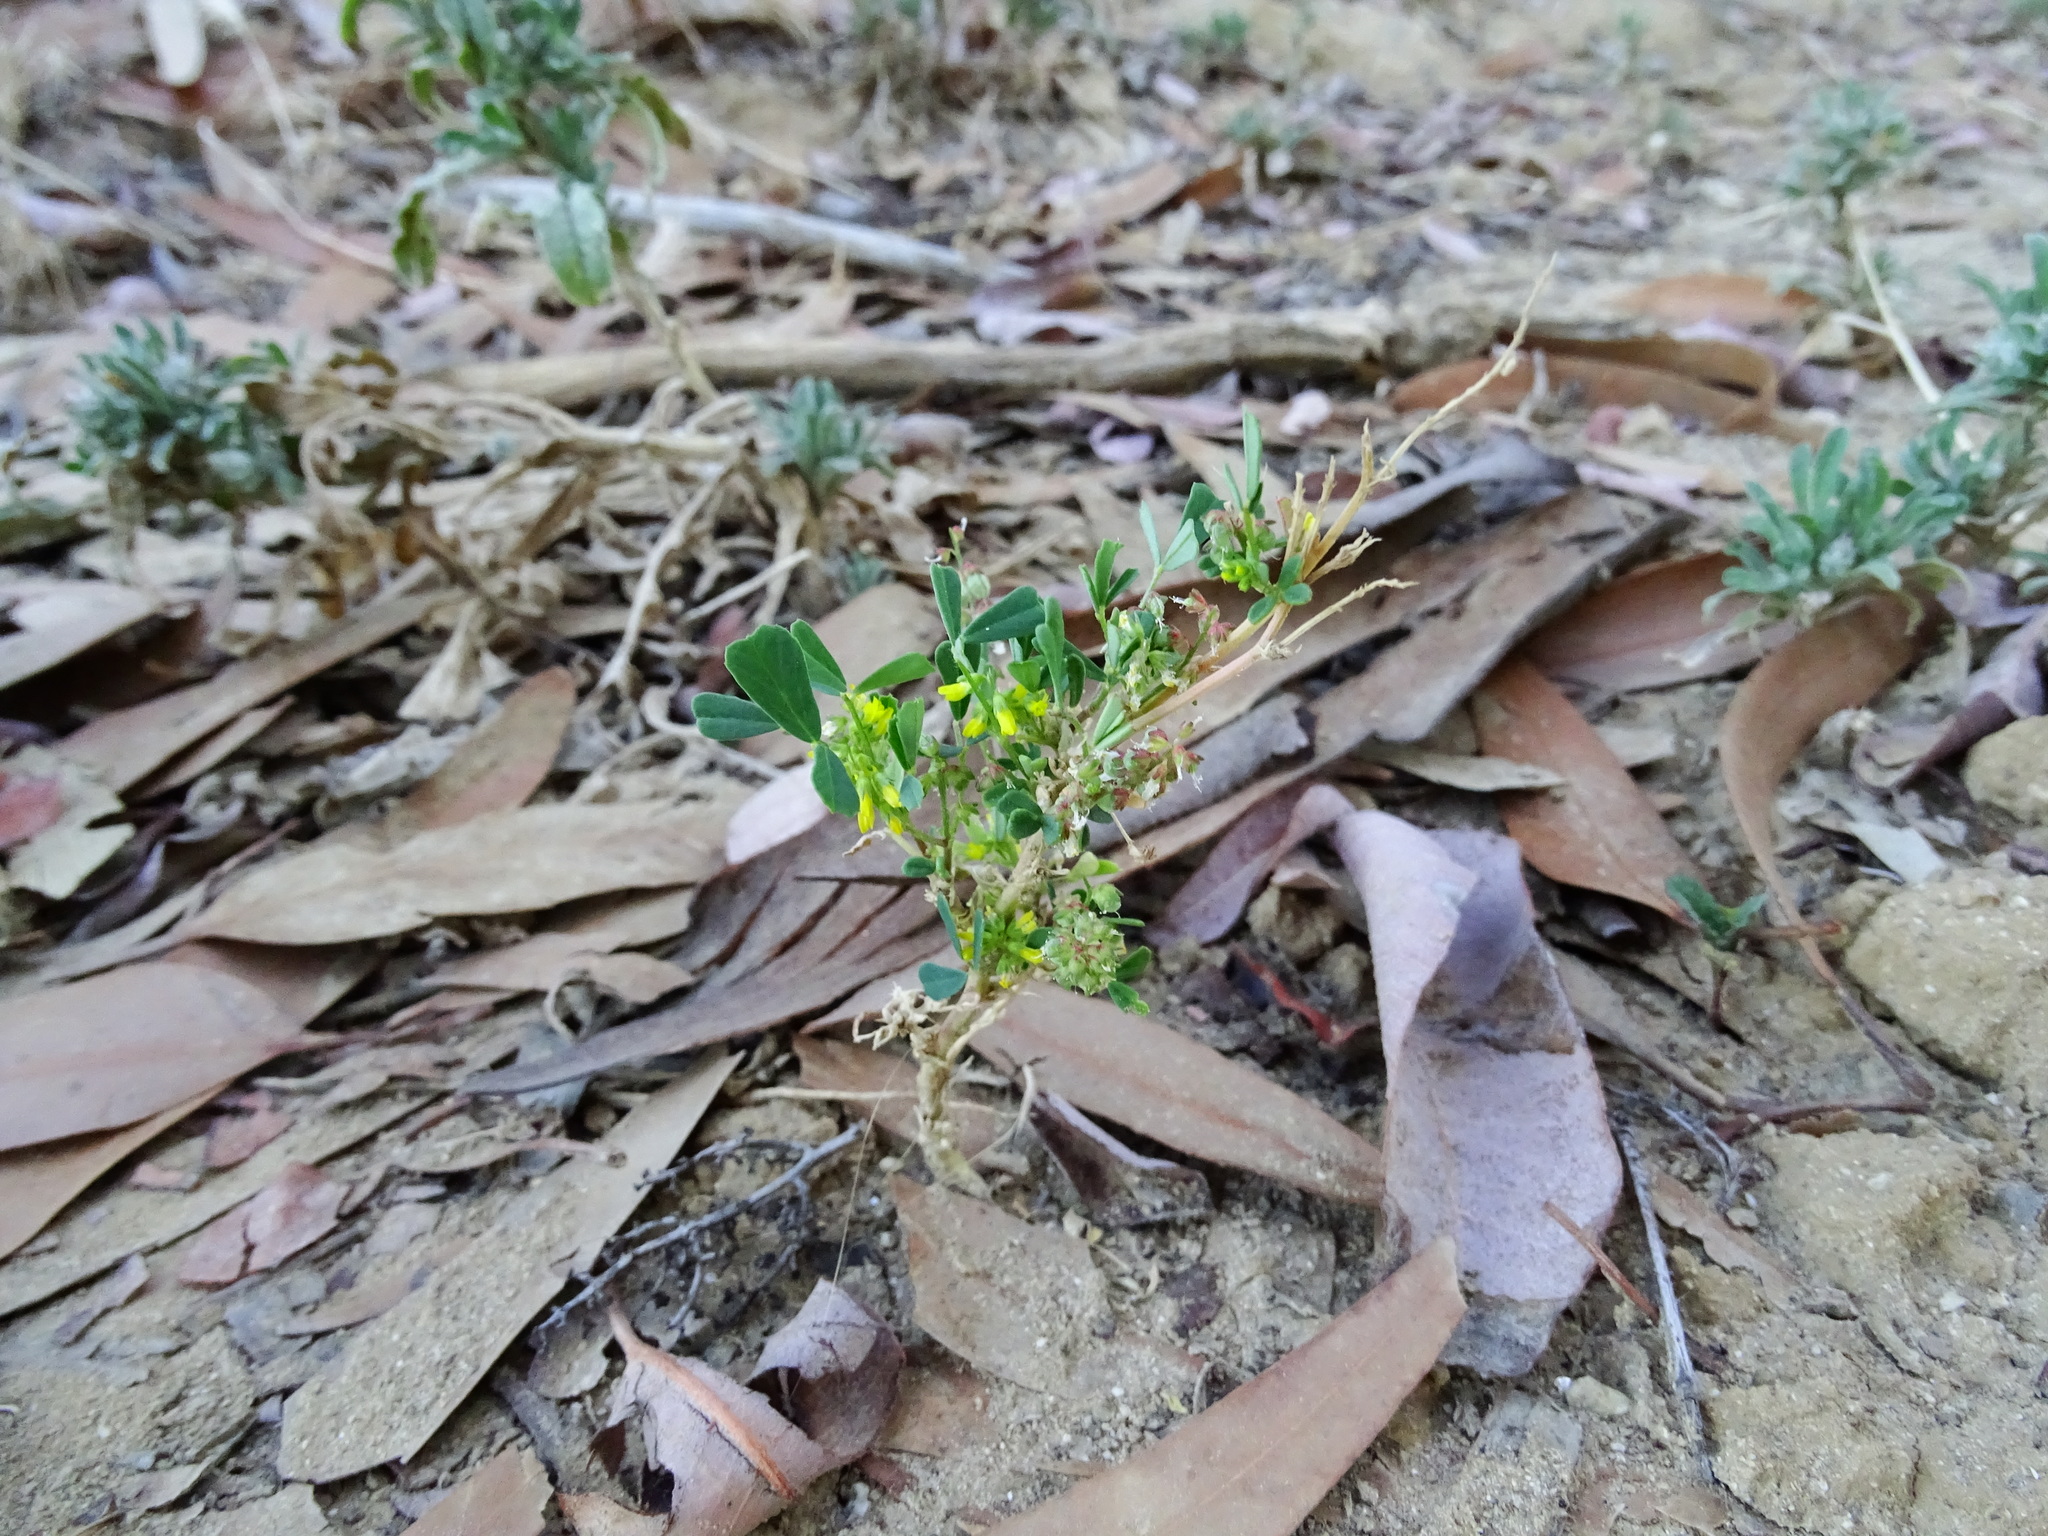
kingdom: Plantae
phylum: Tracheophyta
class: Magnoliopsida
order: Fabales
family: Fabaceae
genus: Melilotus
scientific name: Melilotus indicus
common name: Small melilot
